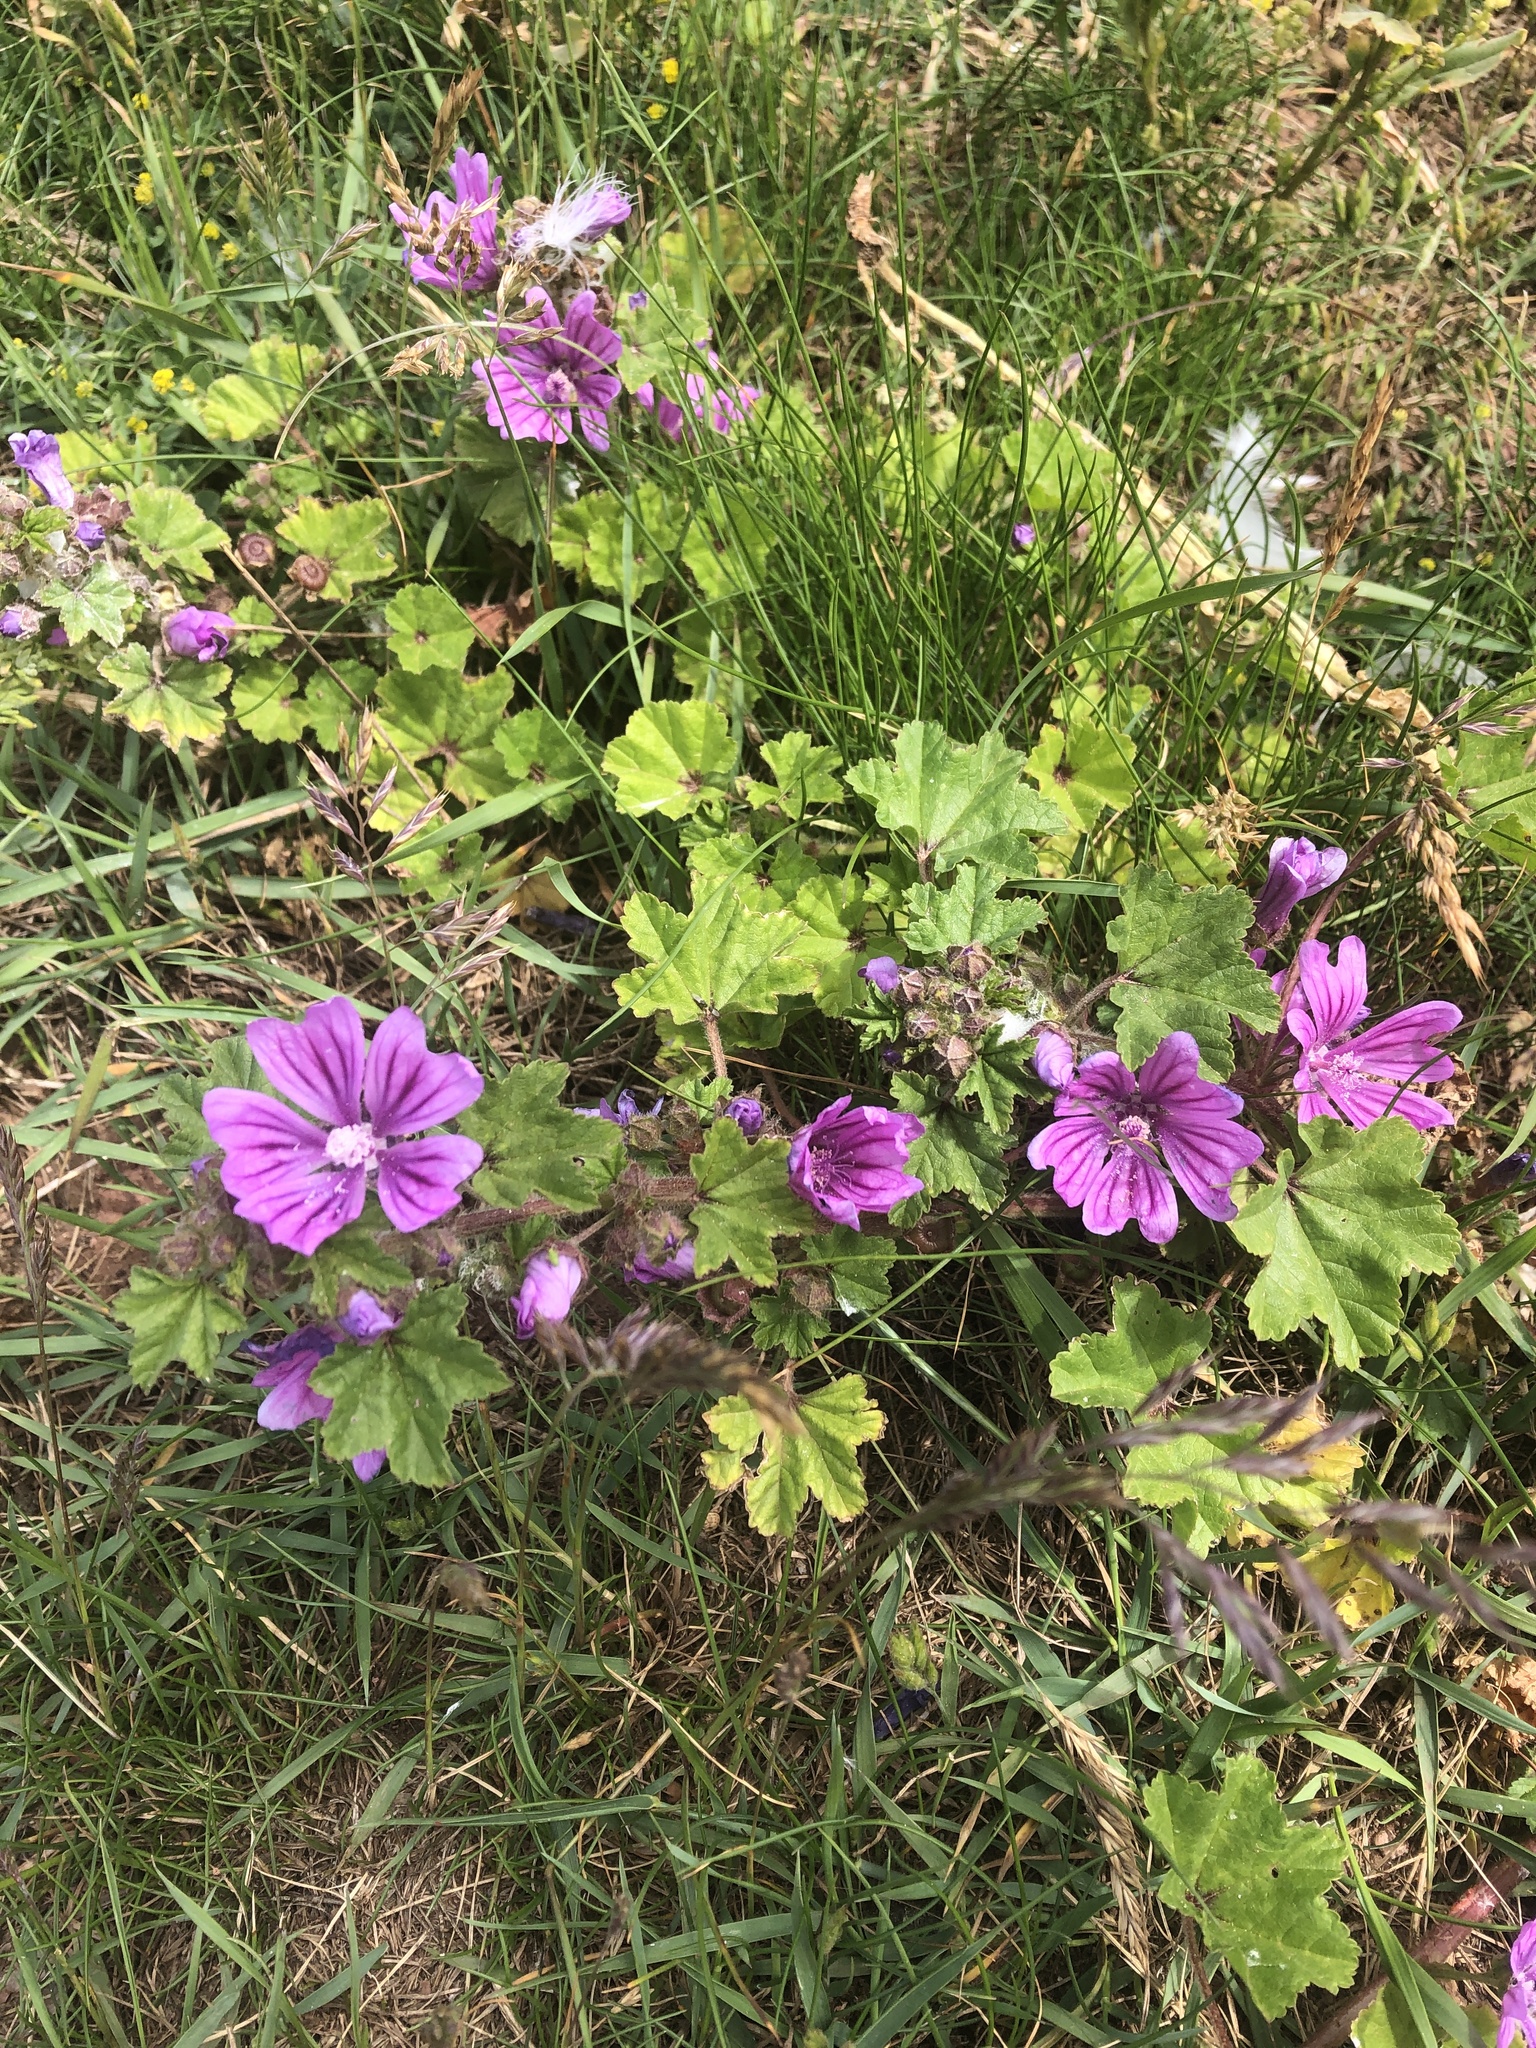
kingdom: Plantae
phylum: Tracheophyta
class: Magnoliopsida
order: Malvales
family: Malvaceae
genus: Malva
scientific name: Malva sylvestris
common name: Common mallow
